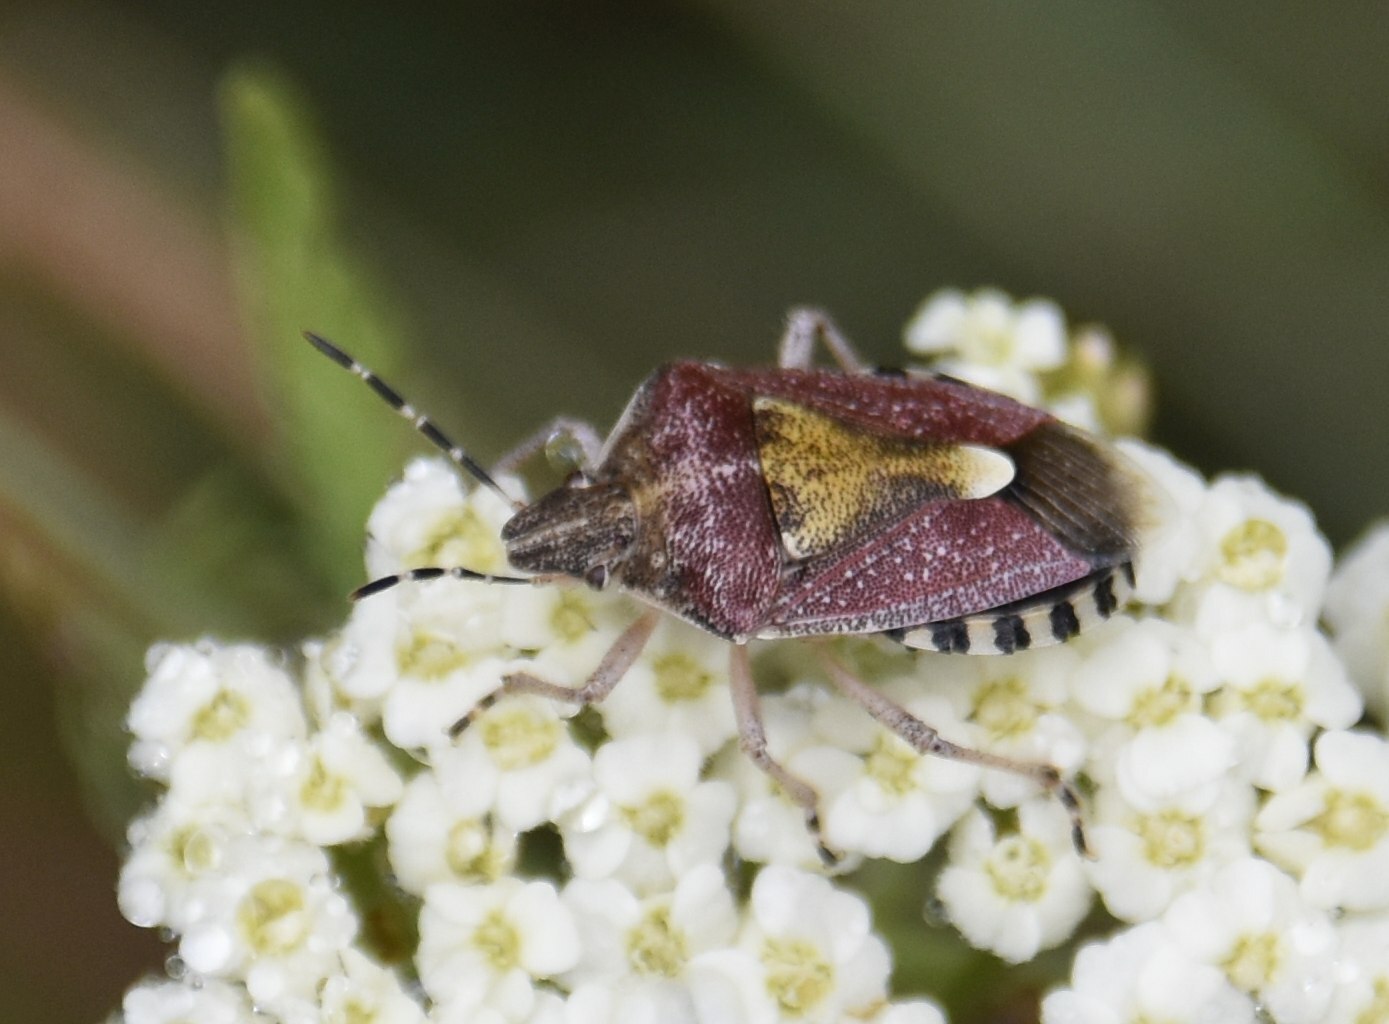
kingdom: Animalia
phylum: Arthropoda
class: Insecta
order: Hemiptera
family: Pentatomidae
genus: Dolycoris
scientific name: Dolycoris baccarum
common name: Sloe bug
